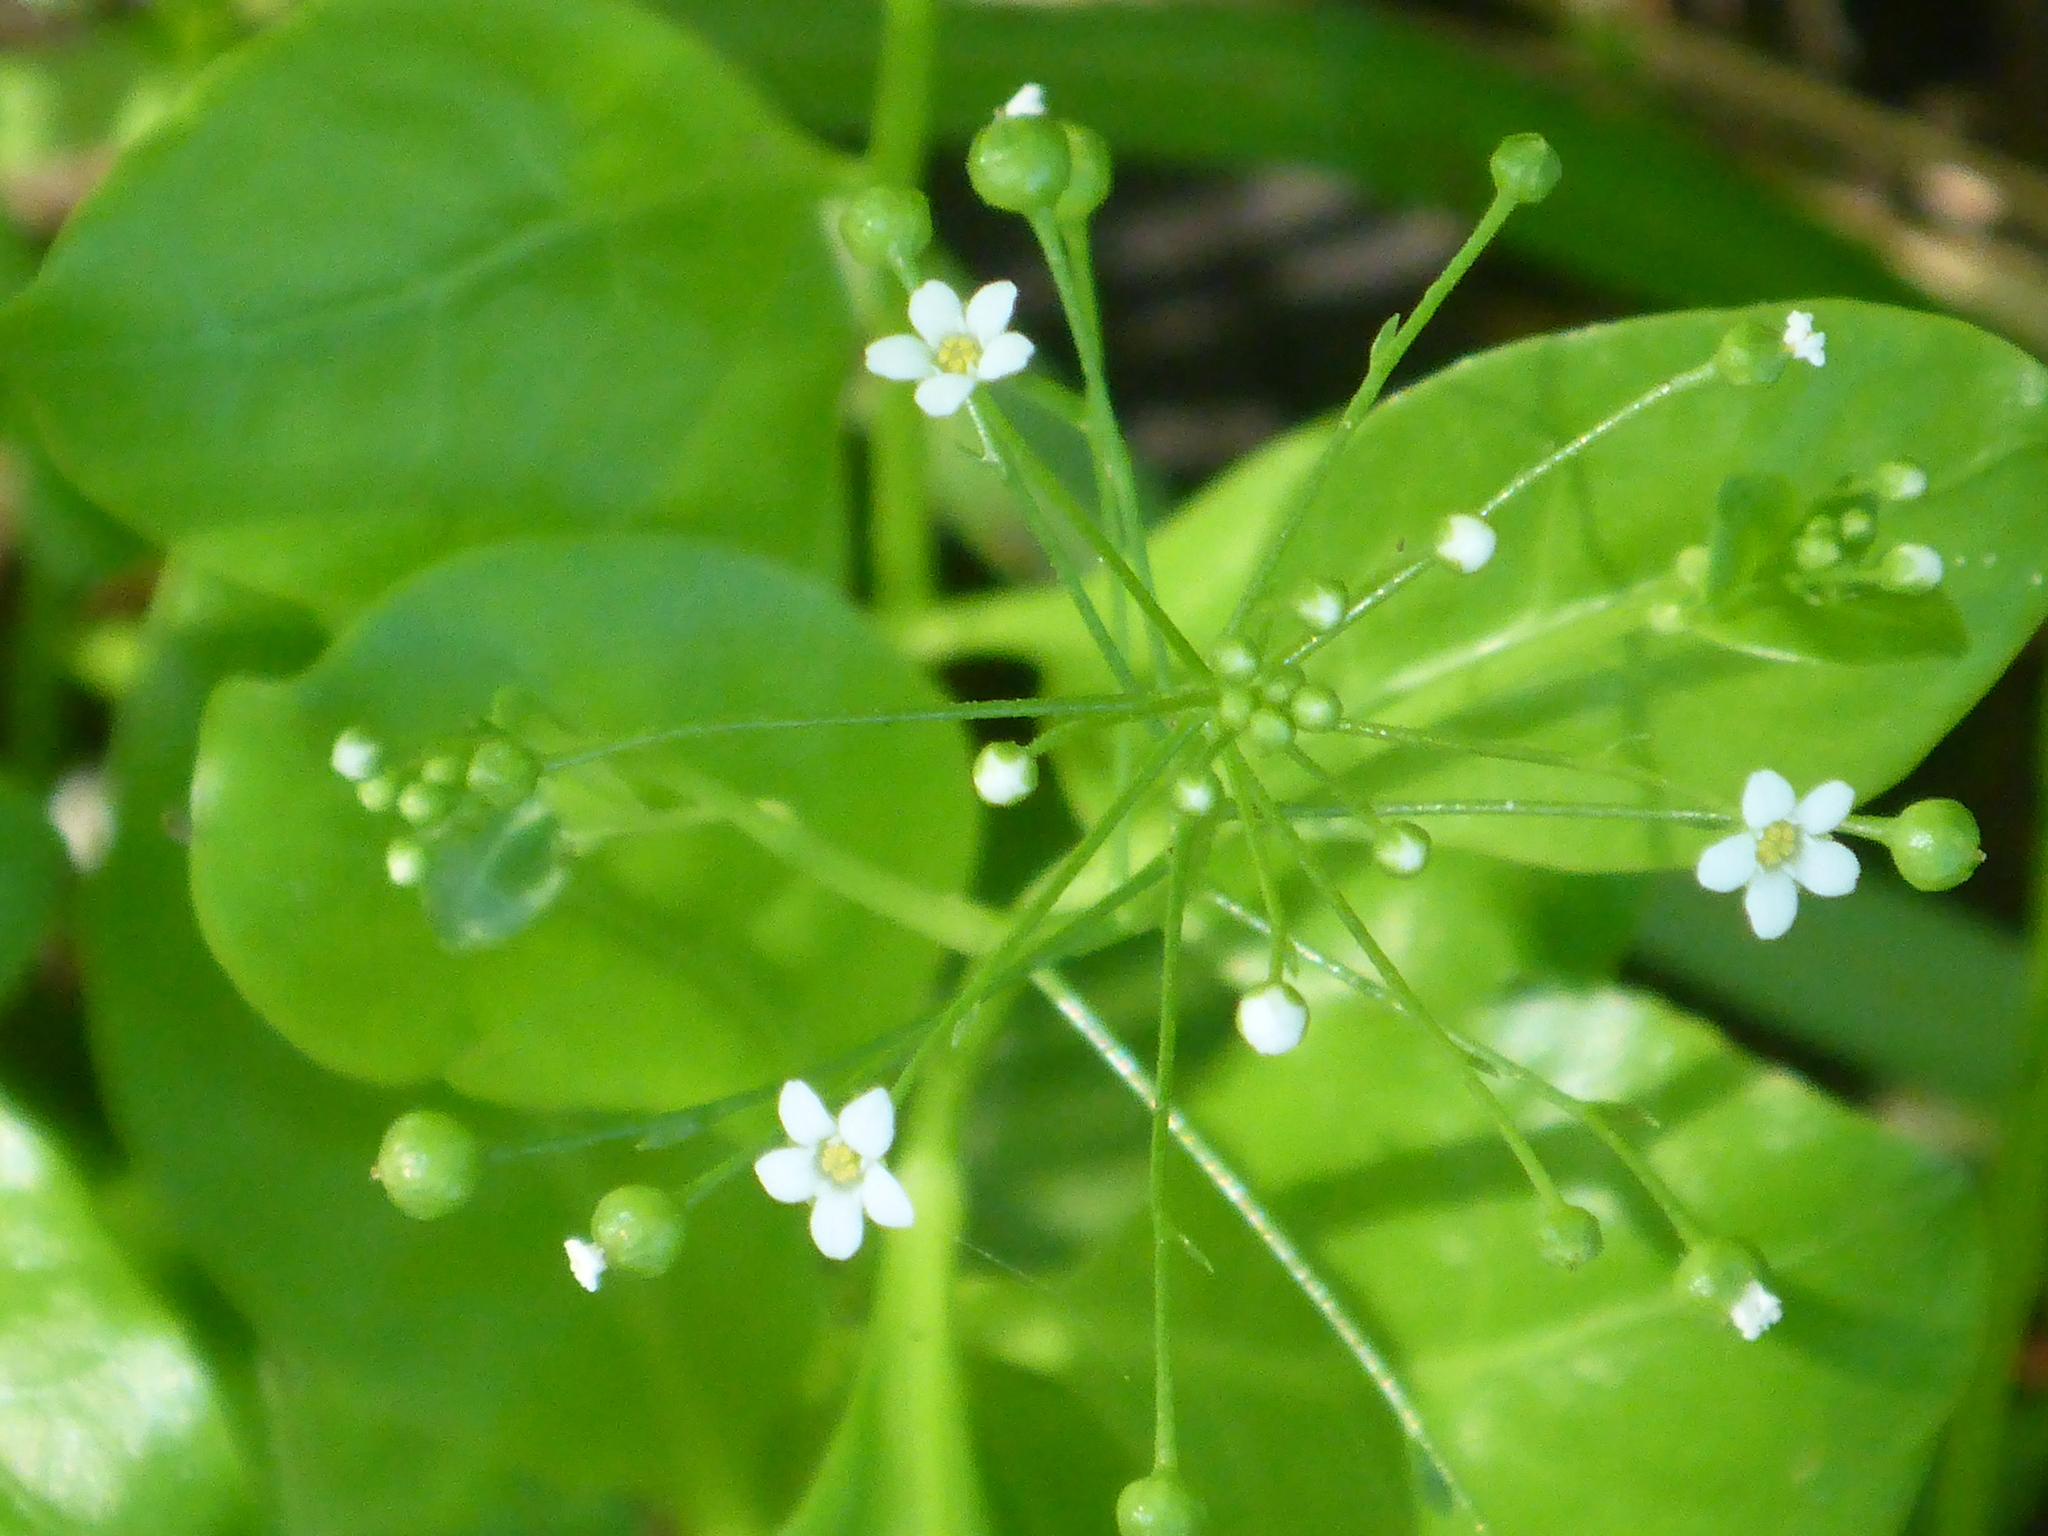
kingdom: Plantae
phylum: Tracheophyta
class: Magnoliopsida
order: Ericales
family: Primulaceae
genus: Samolus
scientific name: Samolus parviflorus
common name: False water pimpernel
